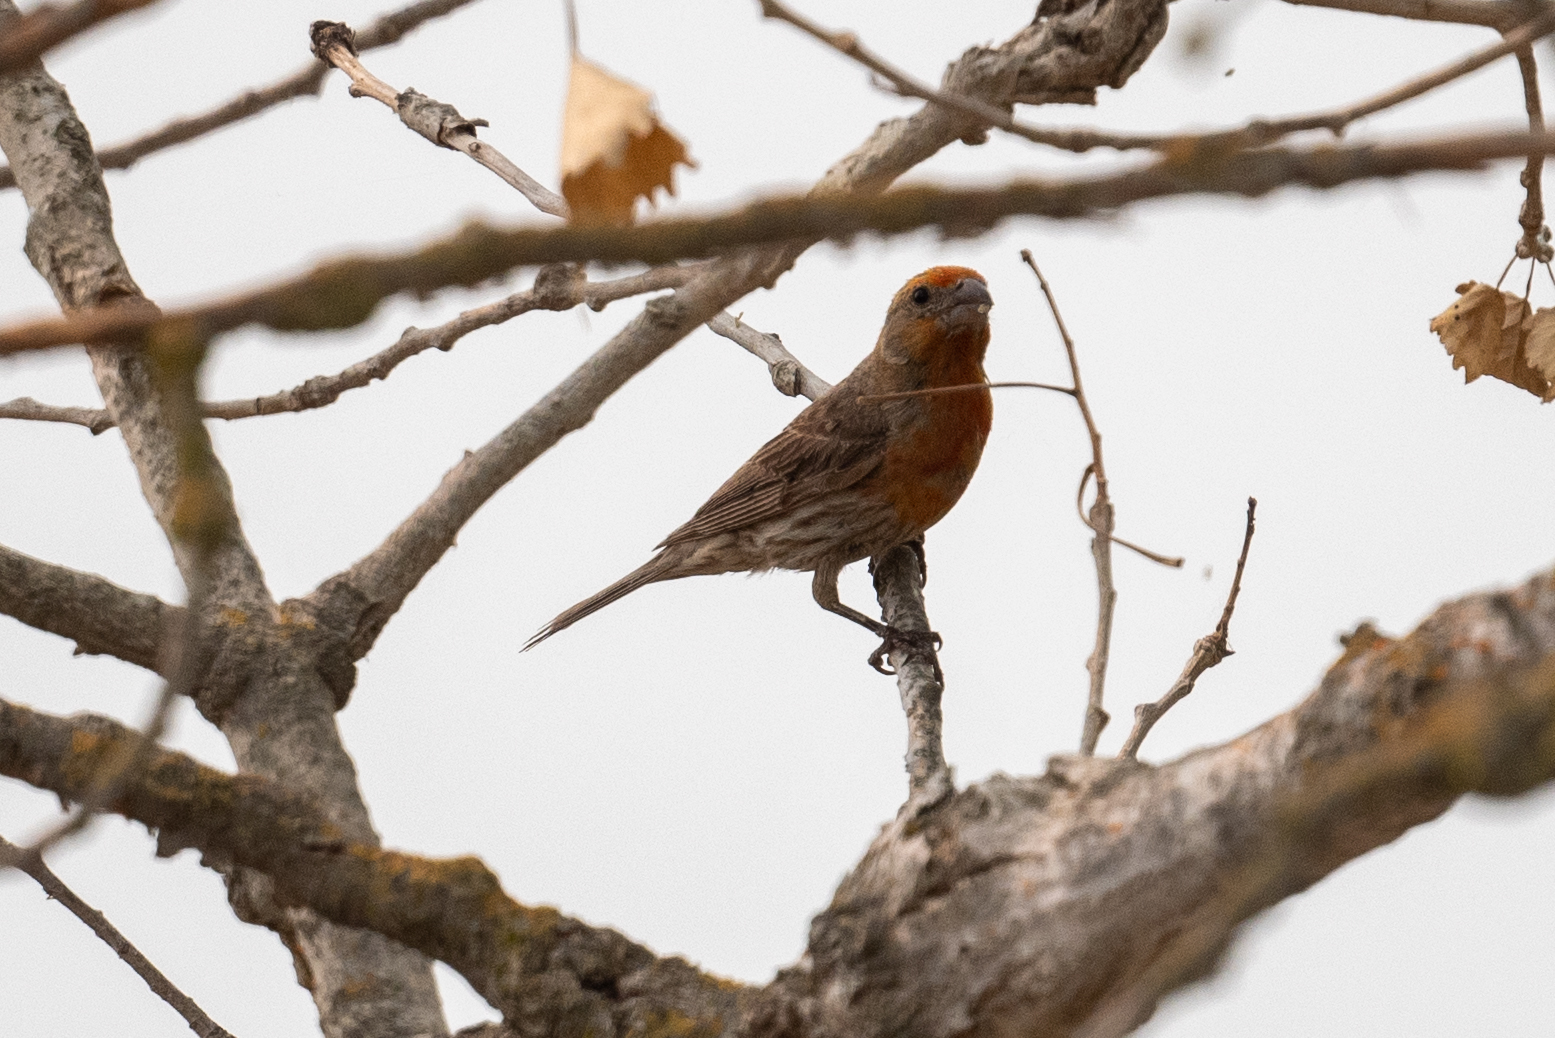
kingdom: Animalia
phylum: Chordata
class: Aves
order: Passeriformes
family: Fringillidae
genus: Haemorhous
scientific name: Haemorhous mexicanus
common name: House finch
